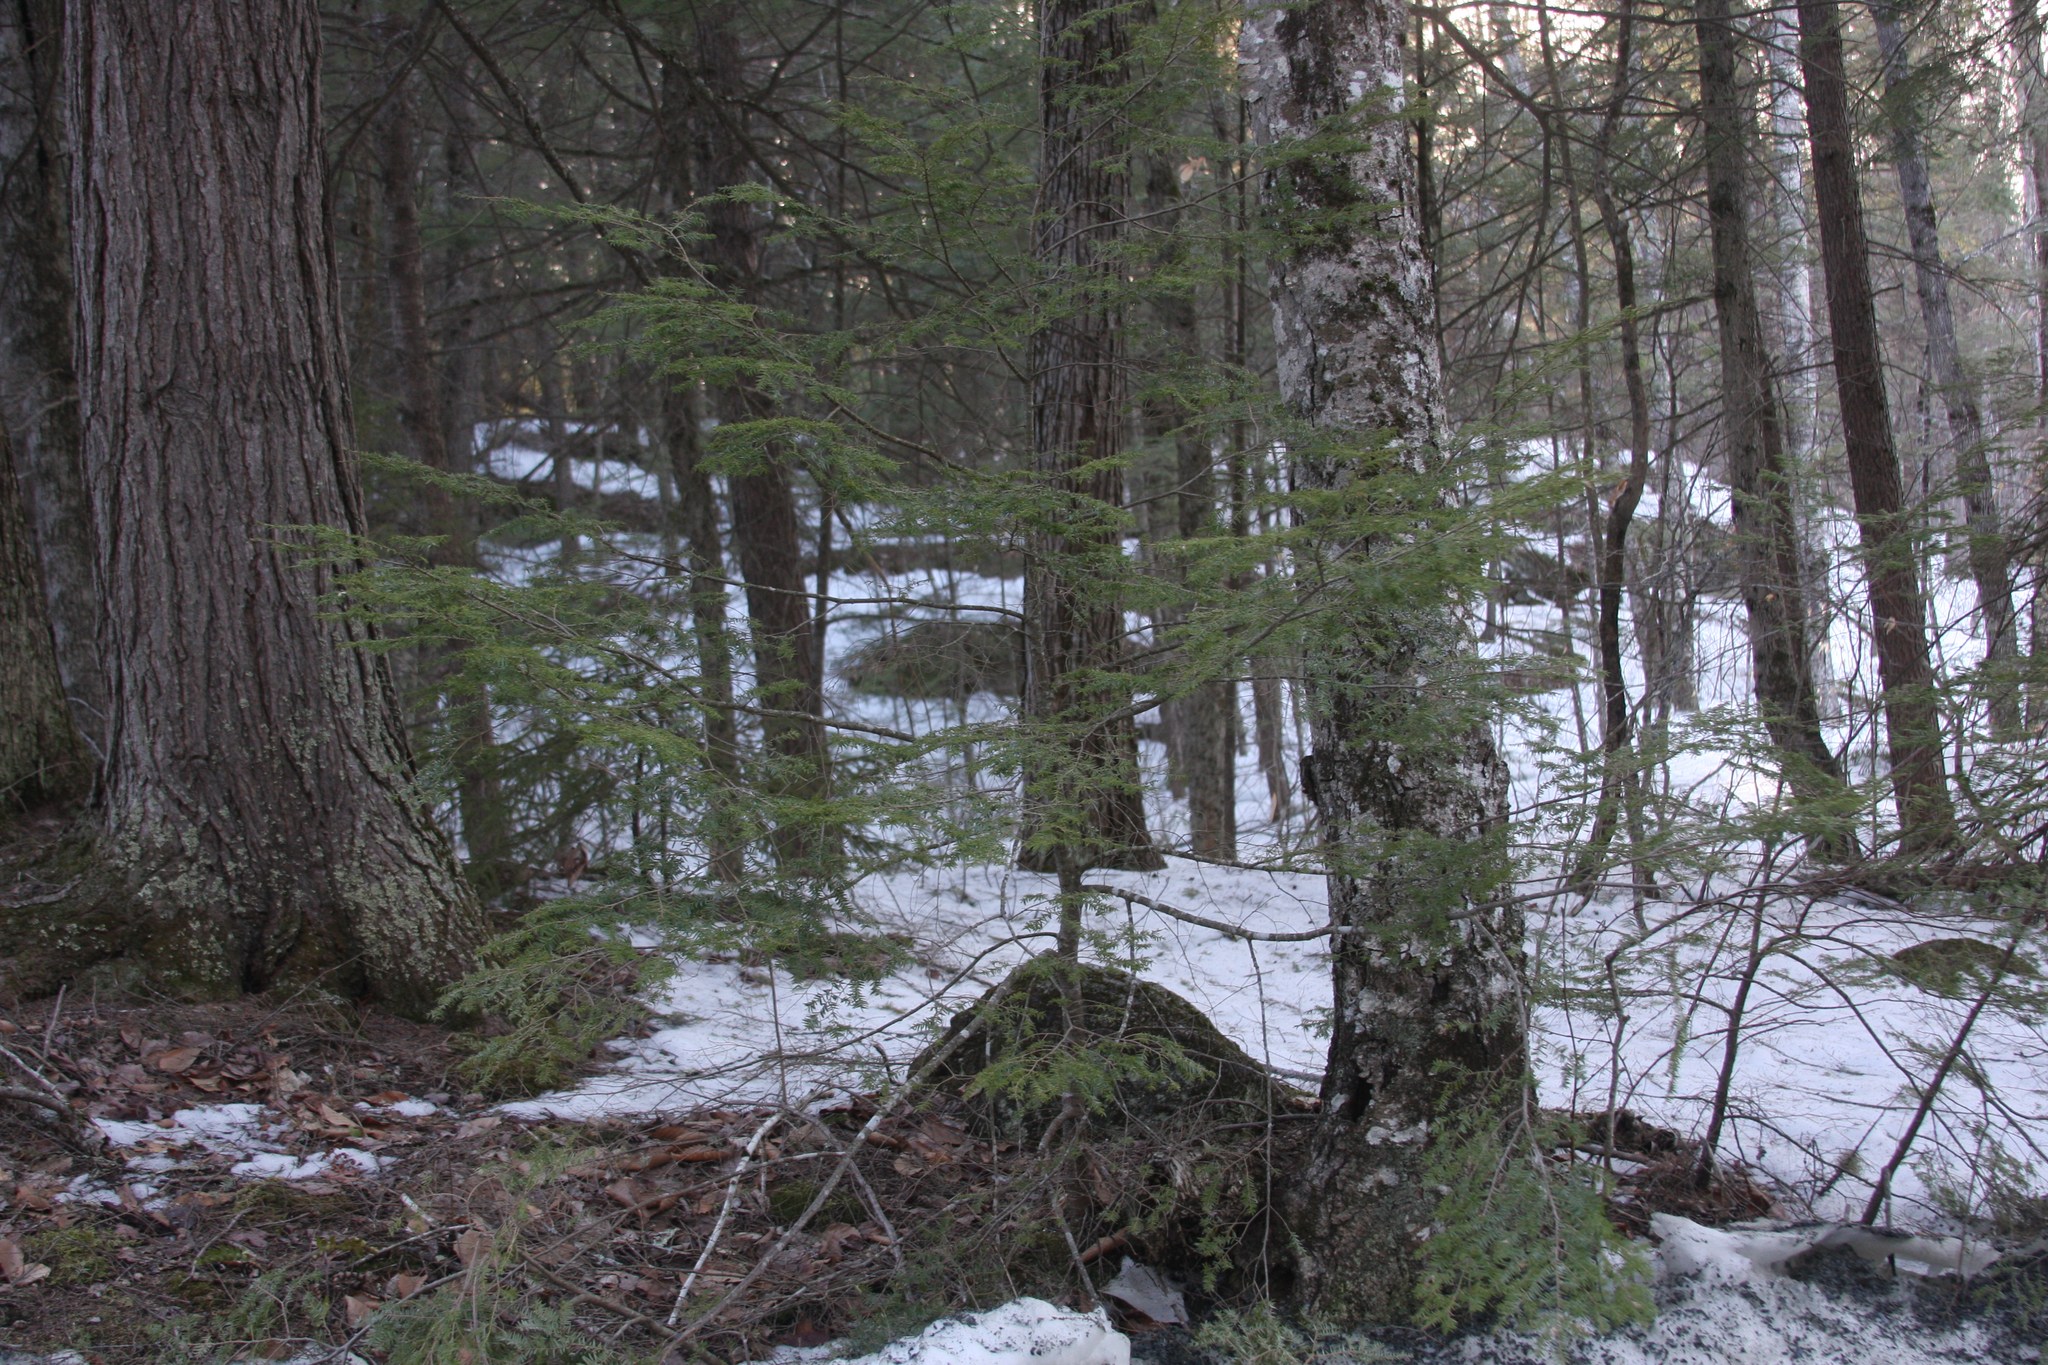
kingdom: Plantae
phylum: Tracheophyta
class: Pinopsida
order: Pinales
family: Pinaceae
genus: Tsuga
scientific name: Tsuga canadensis
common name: Eastern hemlock
